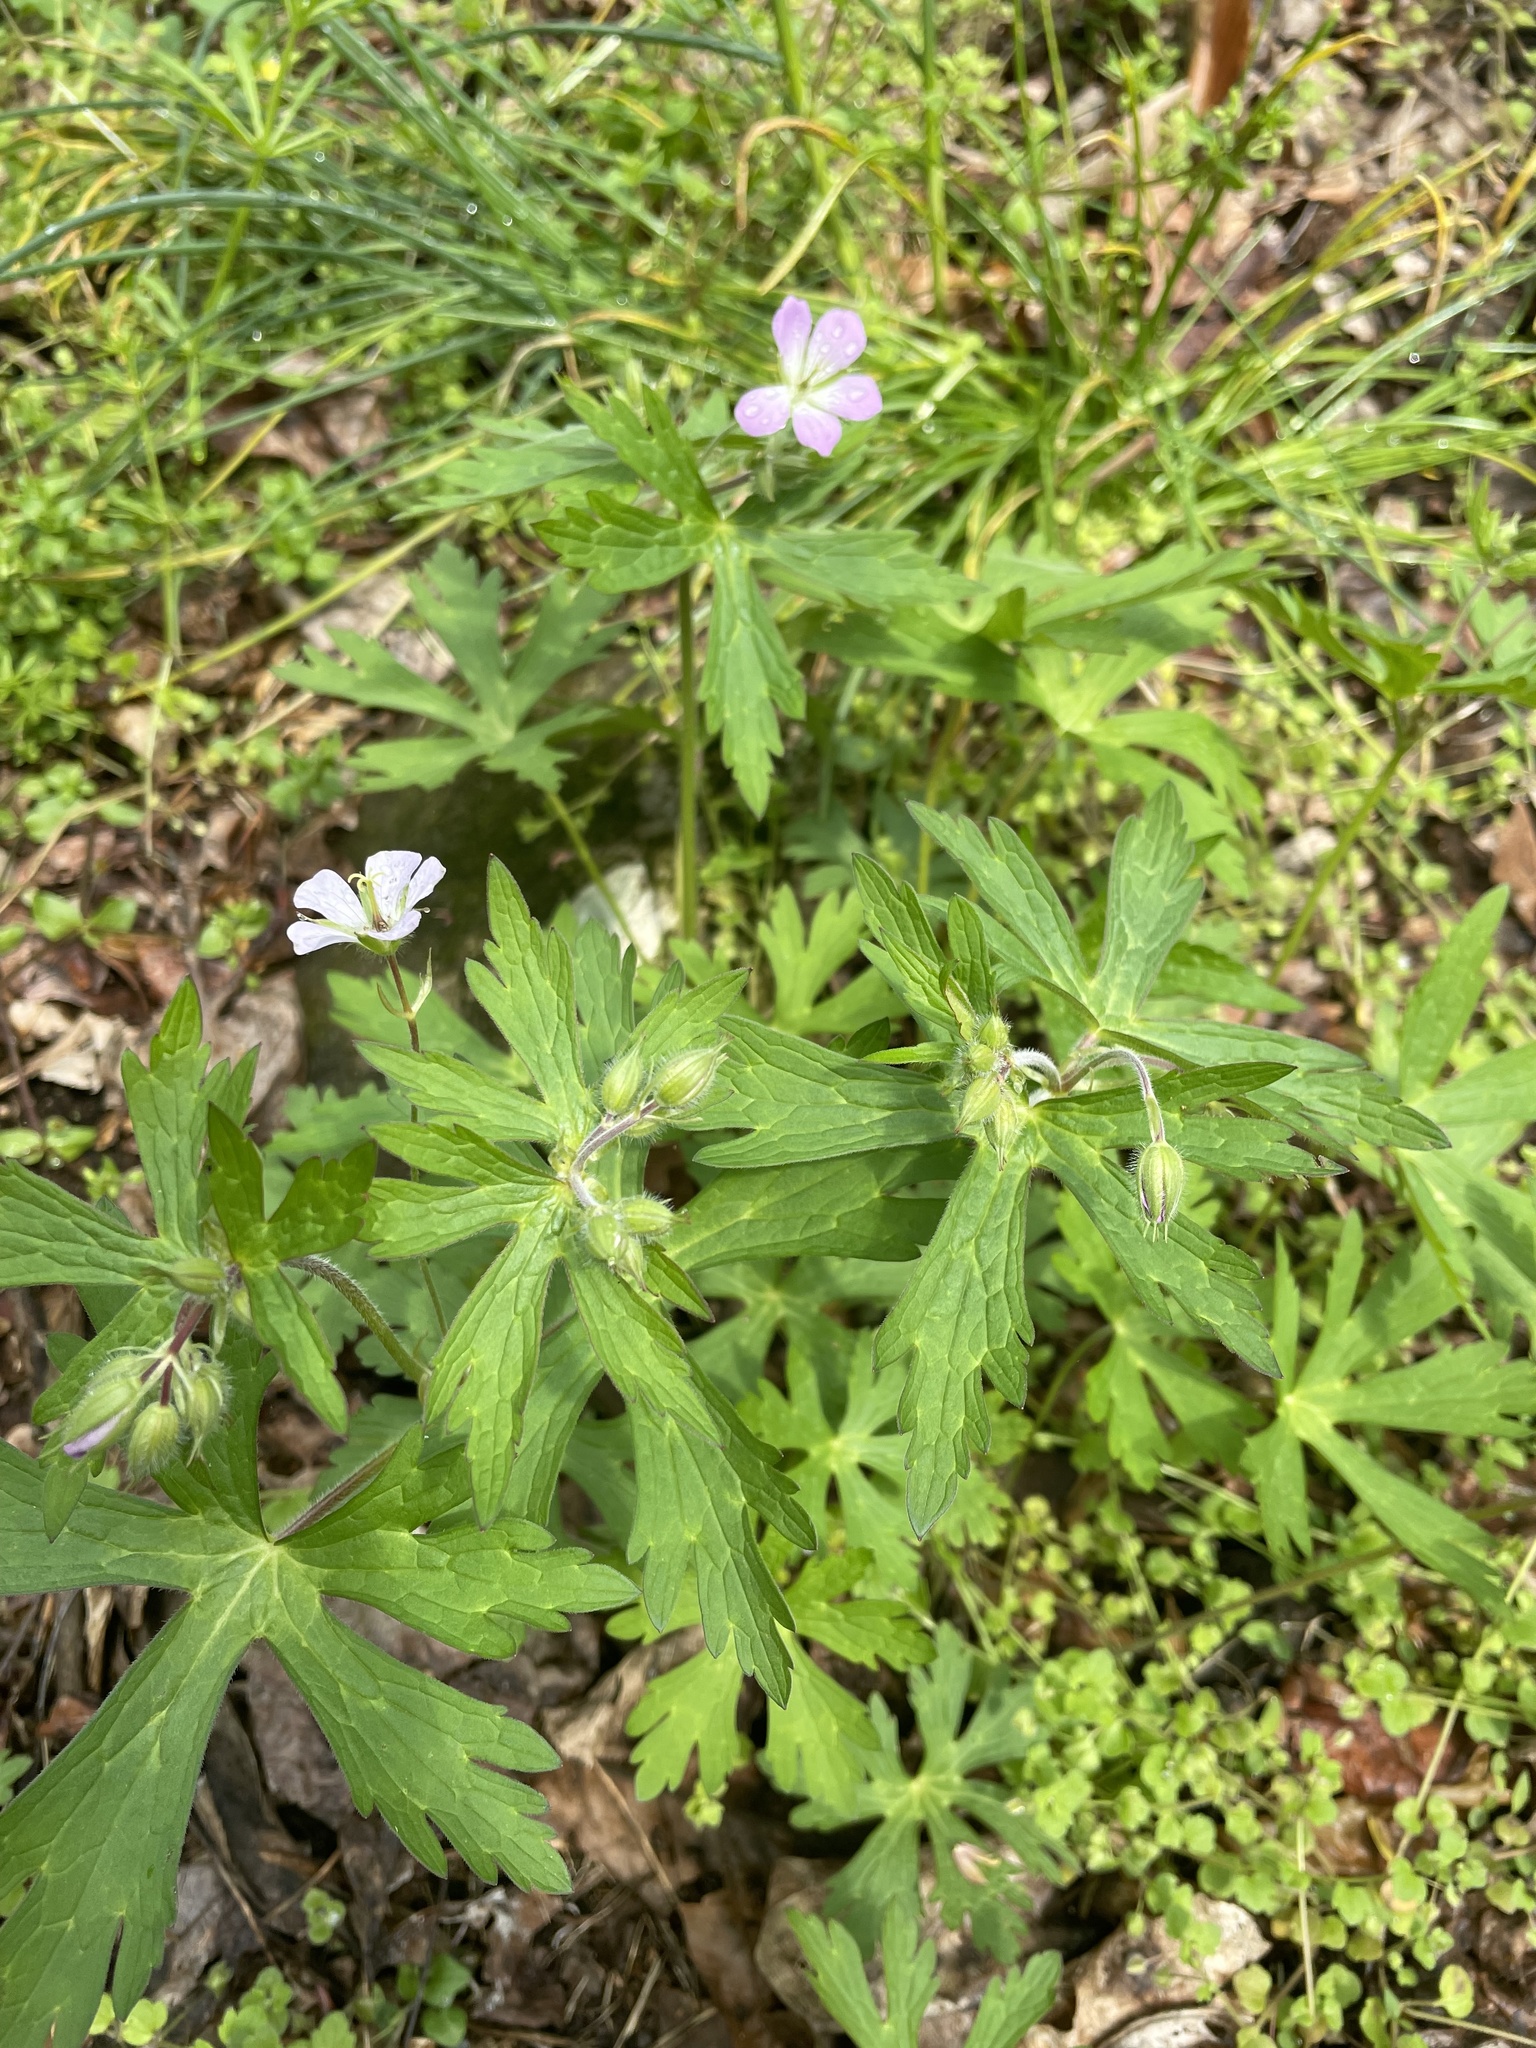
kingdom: Plantae
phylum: Tracheophyta
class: Magnoliopsida
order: Geraniales
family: Geraniaceae
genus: Geranium
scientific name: Geranium maculatum
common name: Spotted geranium
